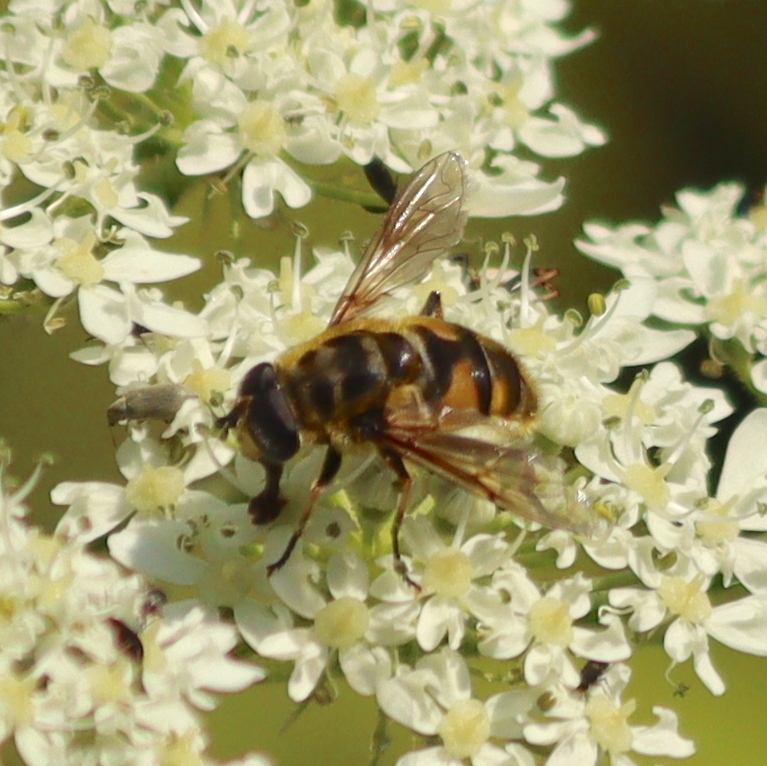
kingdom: Animalia
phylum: Arthropoda
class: Insecta
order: Diptera
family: Syrphidae
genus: Myathropa
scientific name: Myathropa florea
